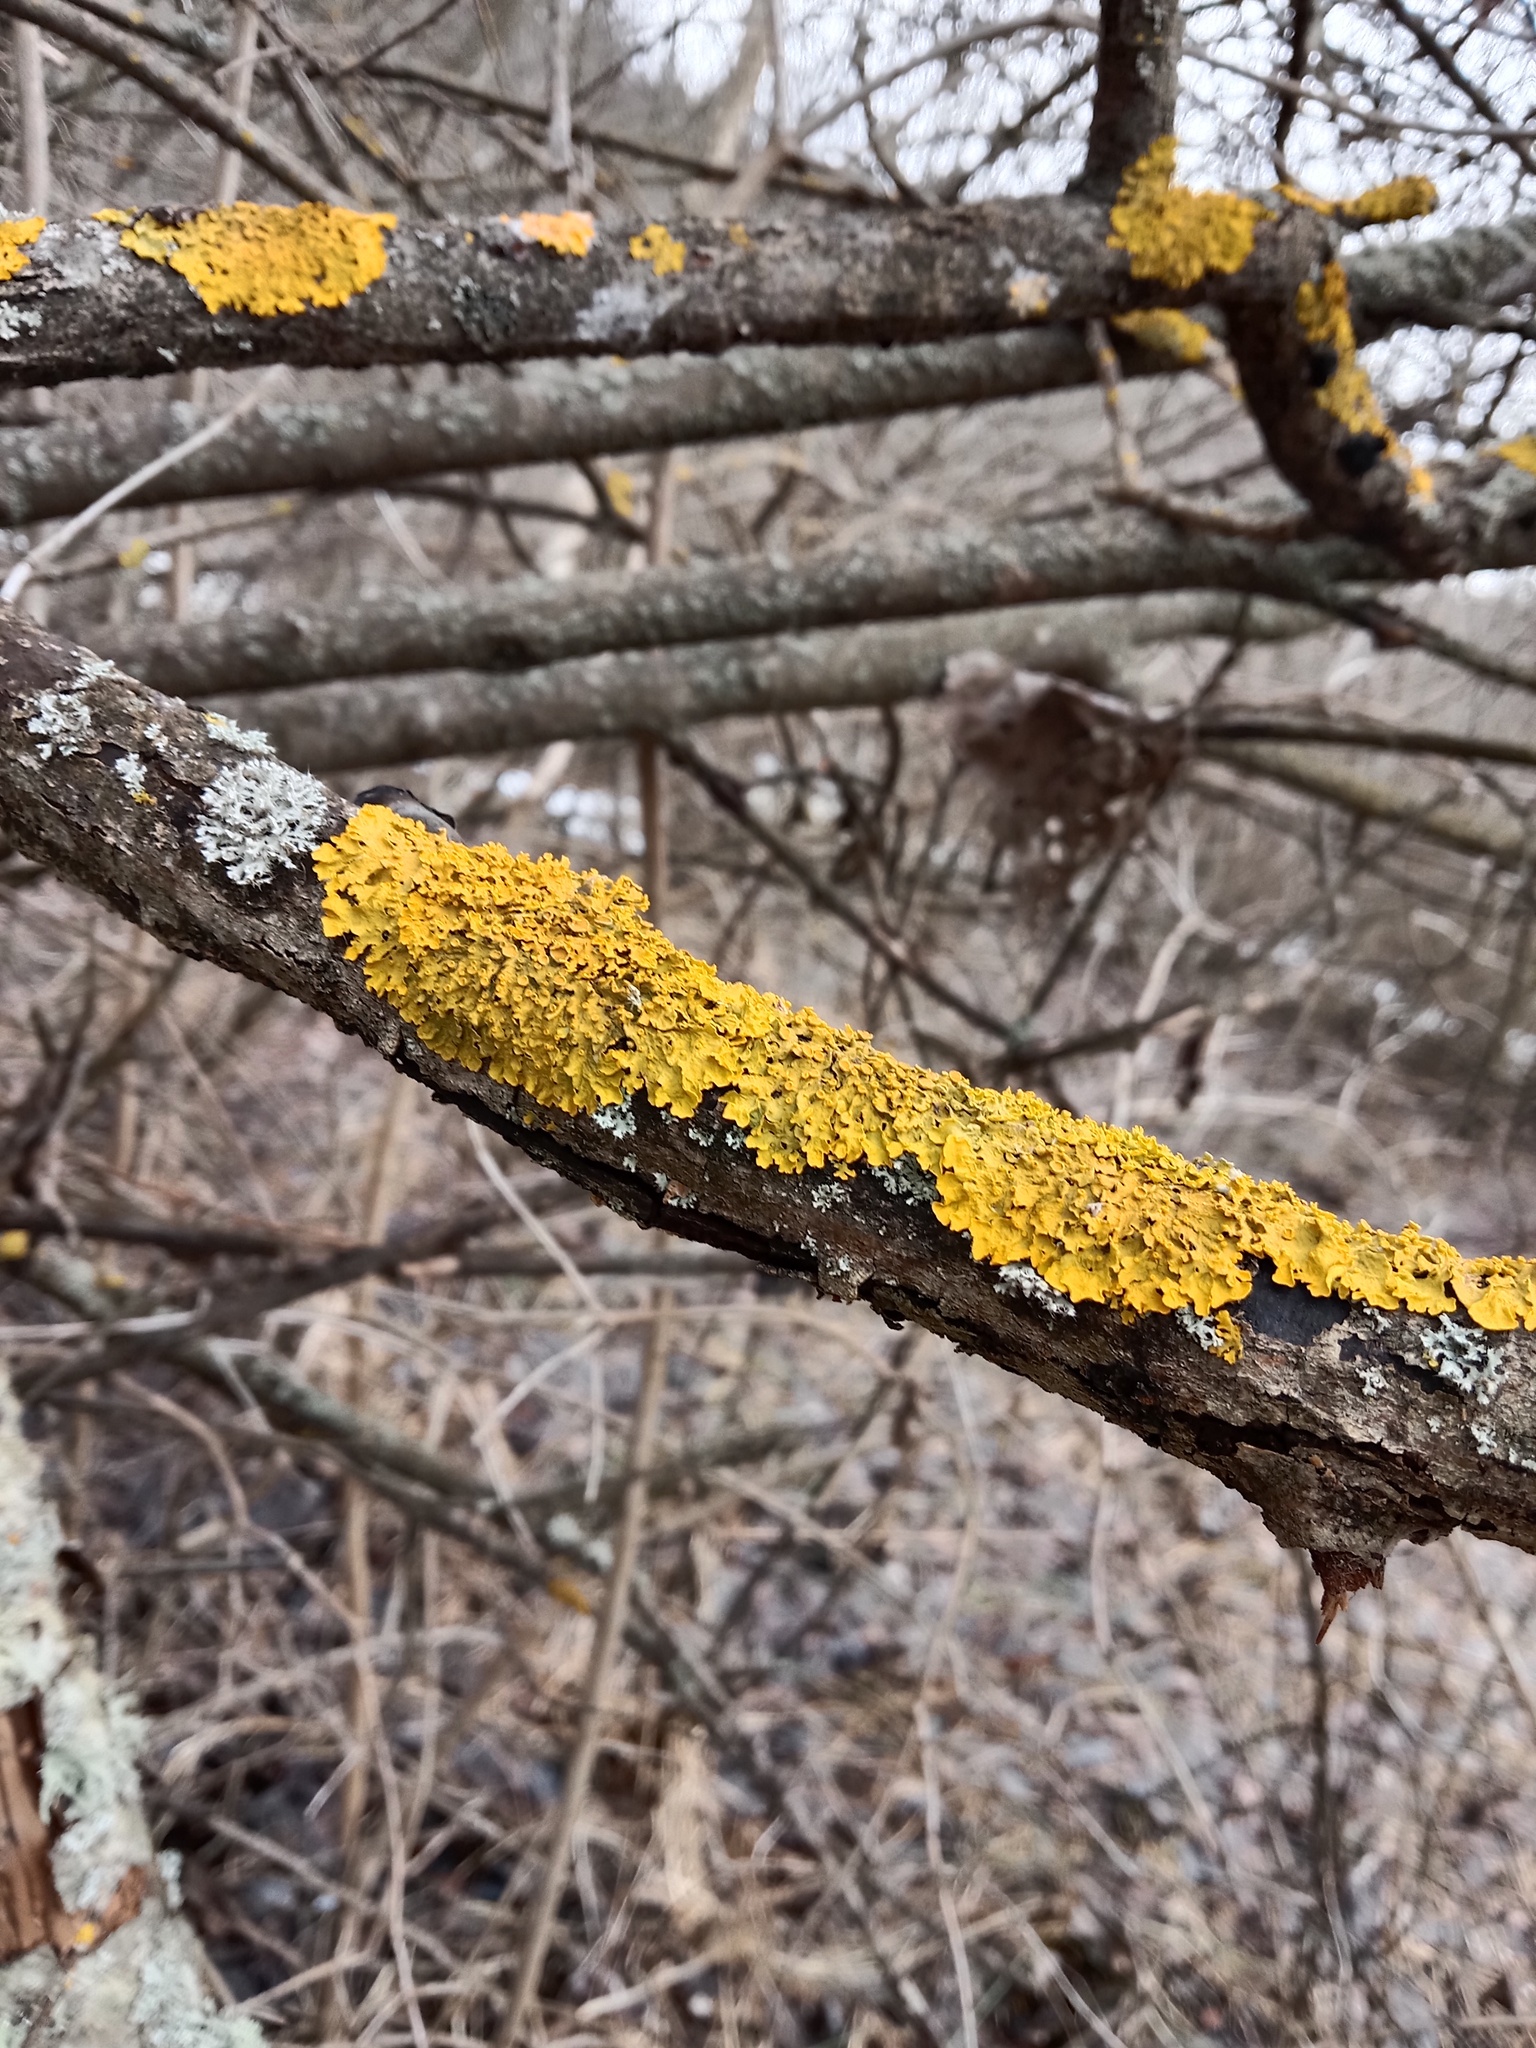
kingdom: Fungi
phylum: Ascomycota
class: Lecanoromycetes
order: Teloschistales
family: Teloschistaceae
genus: Xanthoria
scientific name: Xanthoria parietina
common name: Common orange lichen
